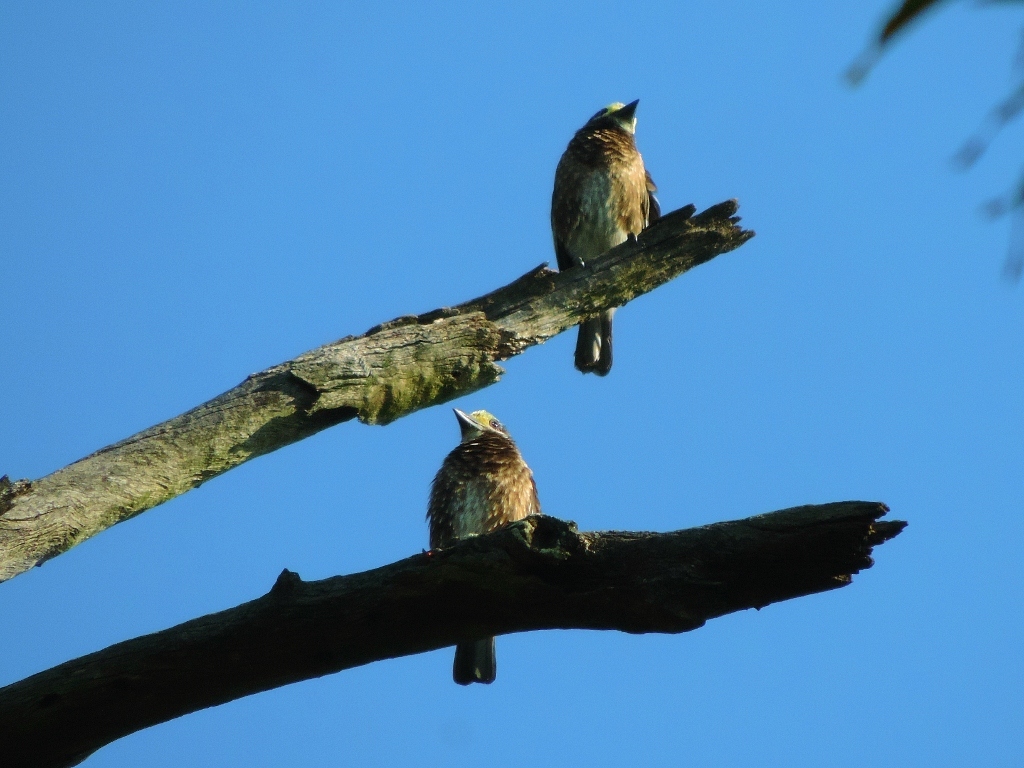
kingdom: Animalia
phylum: Chordata
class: Aves
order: Piciformes
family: Lybiidae
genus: Stactolaema
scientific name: Stactolaema whytii
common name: Whyte's barbet
